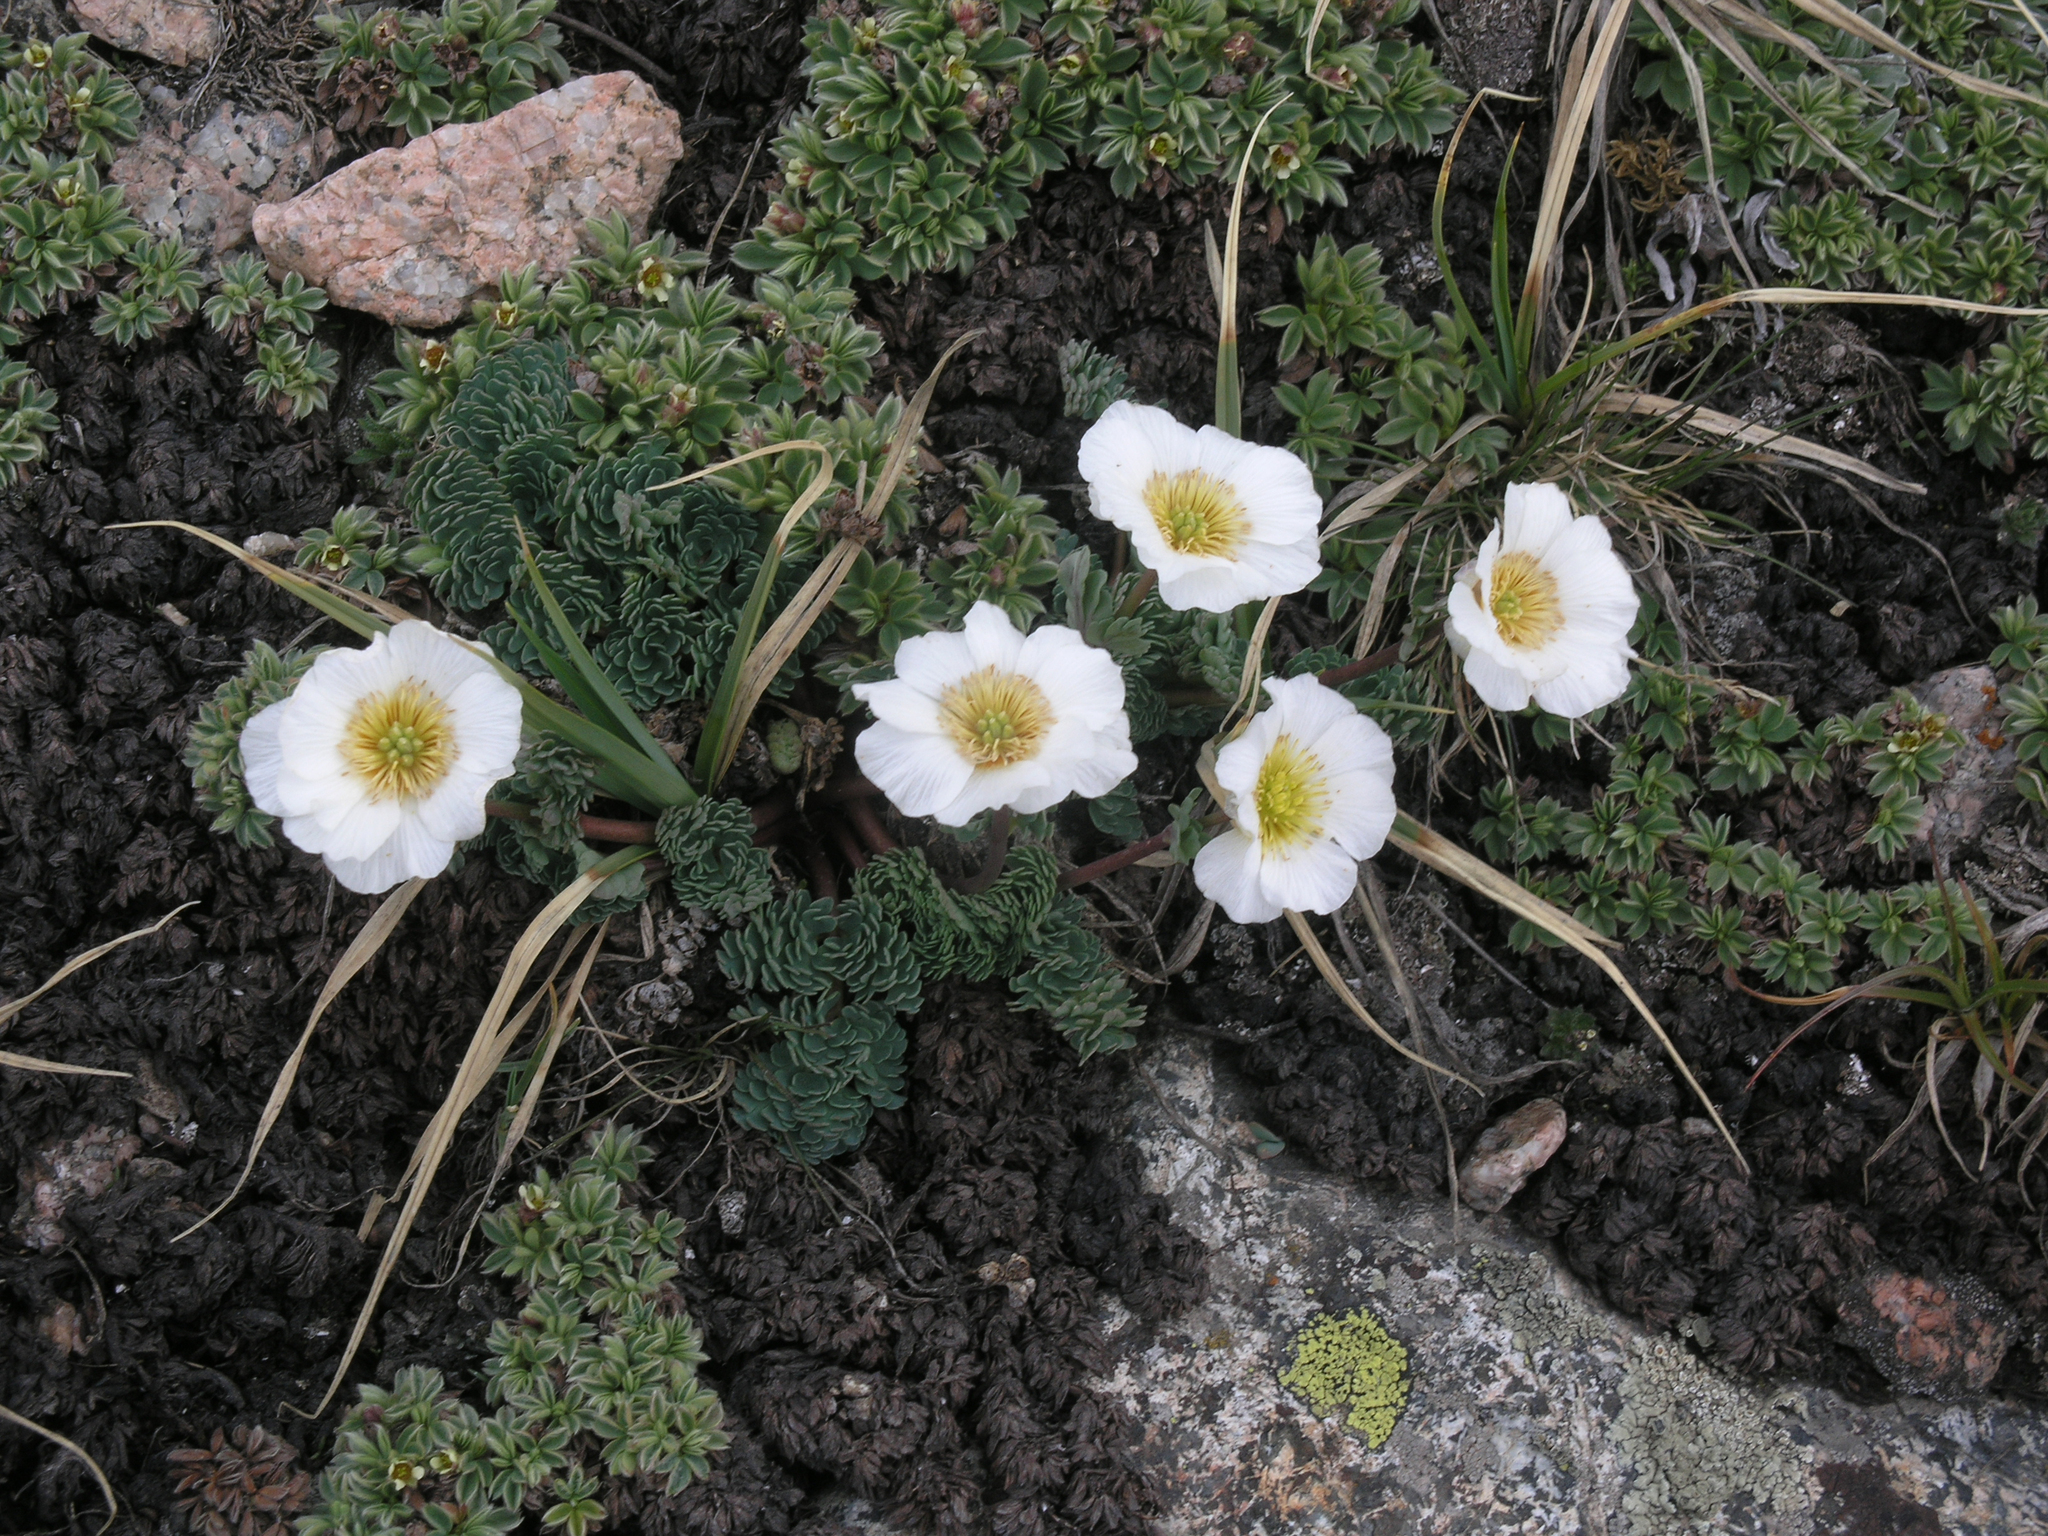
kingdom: Plantae
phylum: Tracheophyta
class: Magnoliopsida
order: Ranunculales
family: Ranunculaceae
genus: Callianthemum
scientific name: Callianthemum alatavicum
